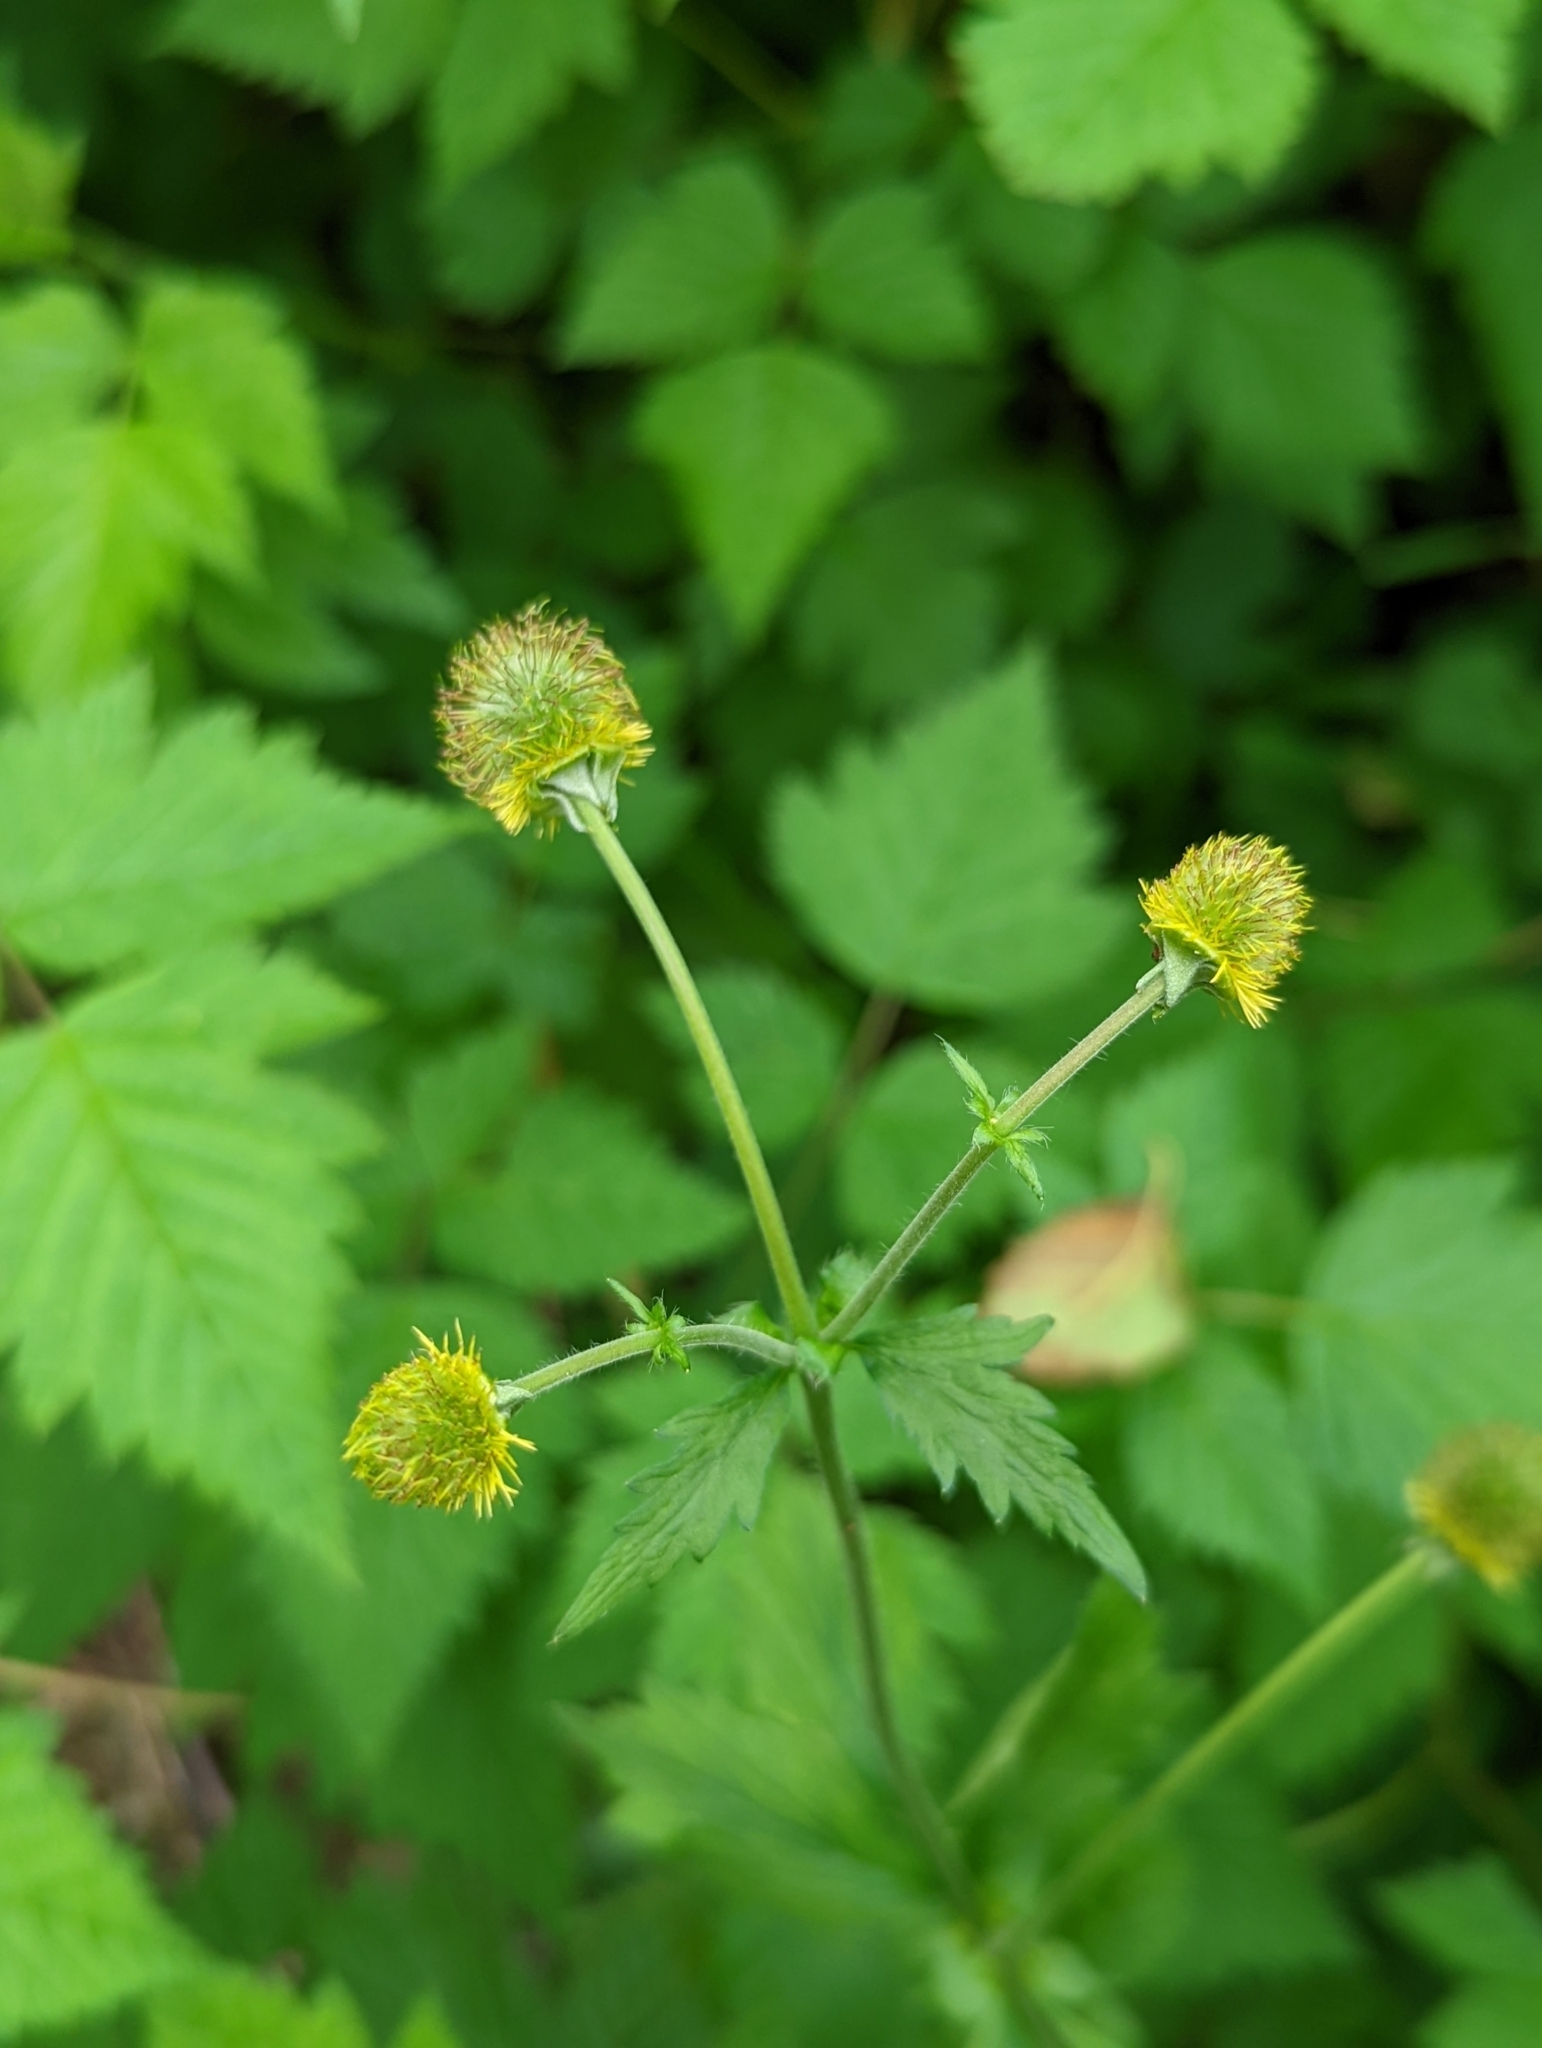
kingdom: Plantae
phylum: Tracheophyta
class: Magnoliopsida
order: Rosales
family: Rosaceae
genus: Geum
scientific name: Geum macrophyllum
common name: Large-leaved avens
